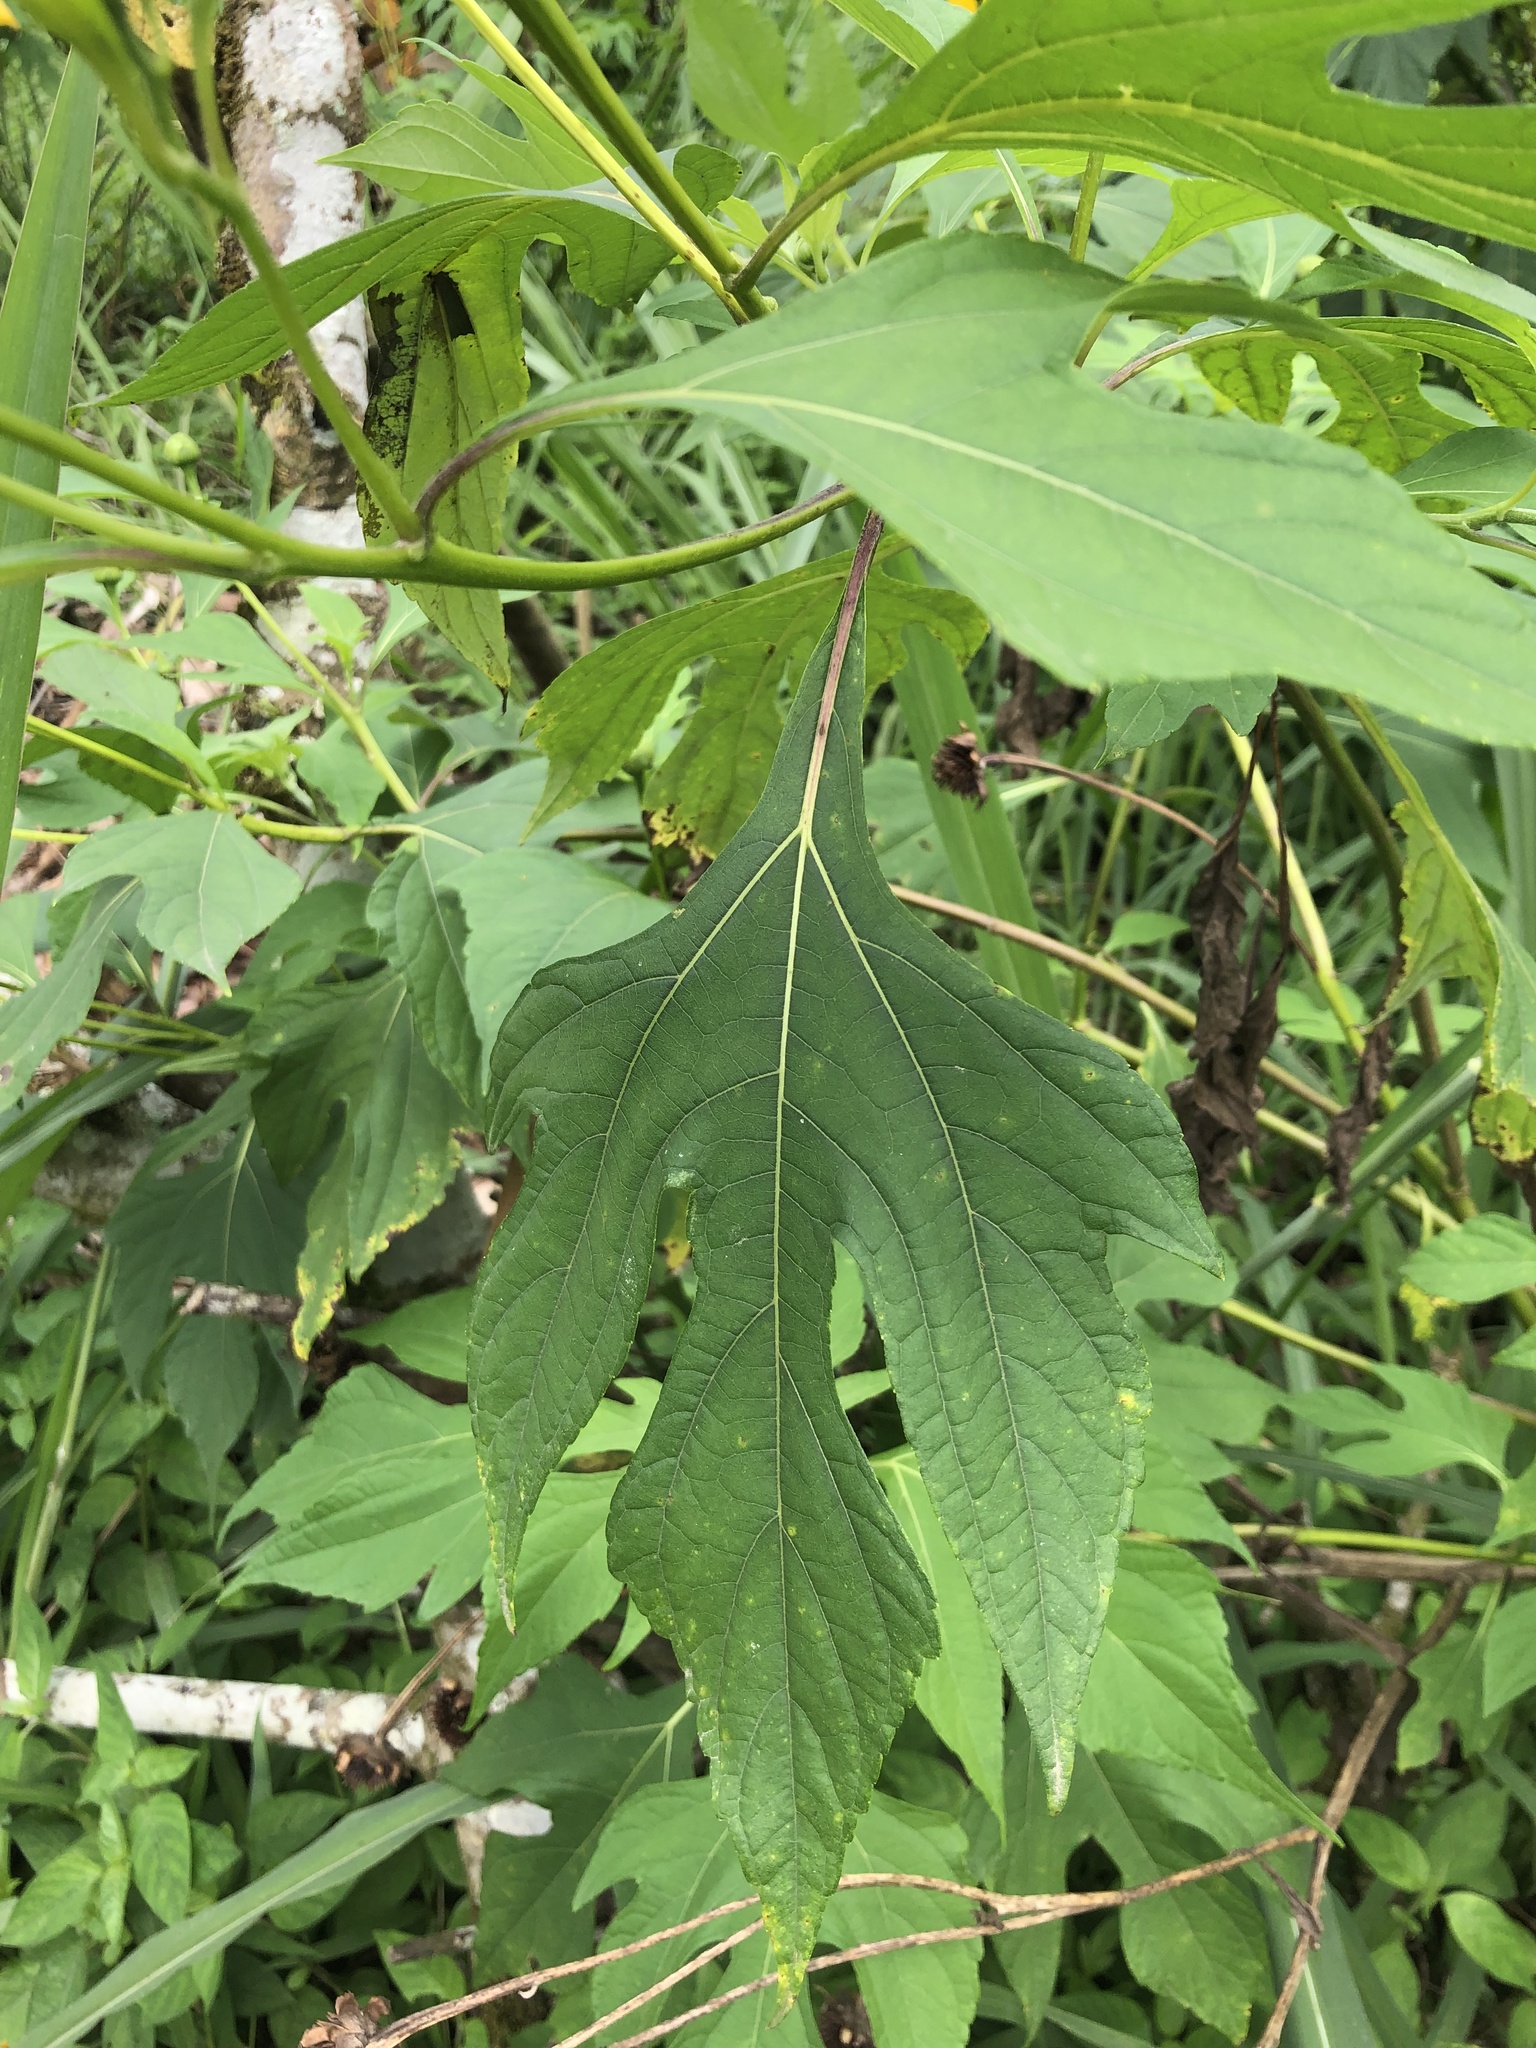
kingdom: Plantae
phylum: Tracheophyta
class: Magnoliopsida
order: Asterales
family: Asteraceae
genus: Tithonia
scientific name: Tithonia diversifolia
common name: Tree marigold
